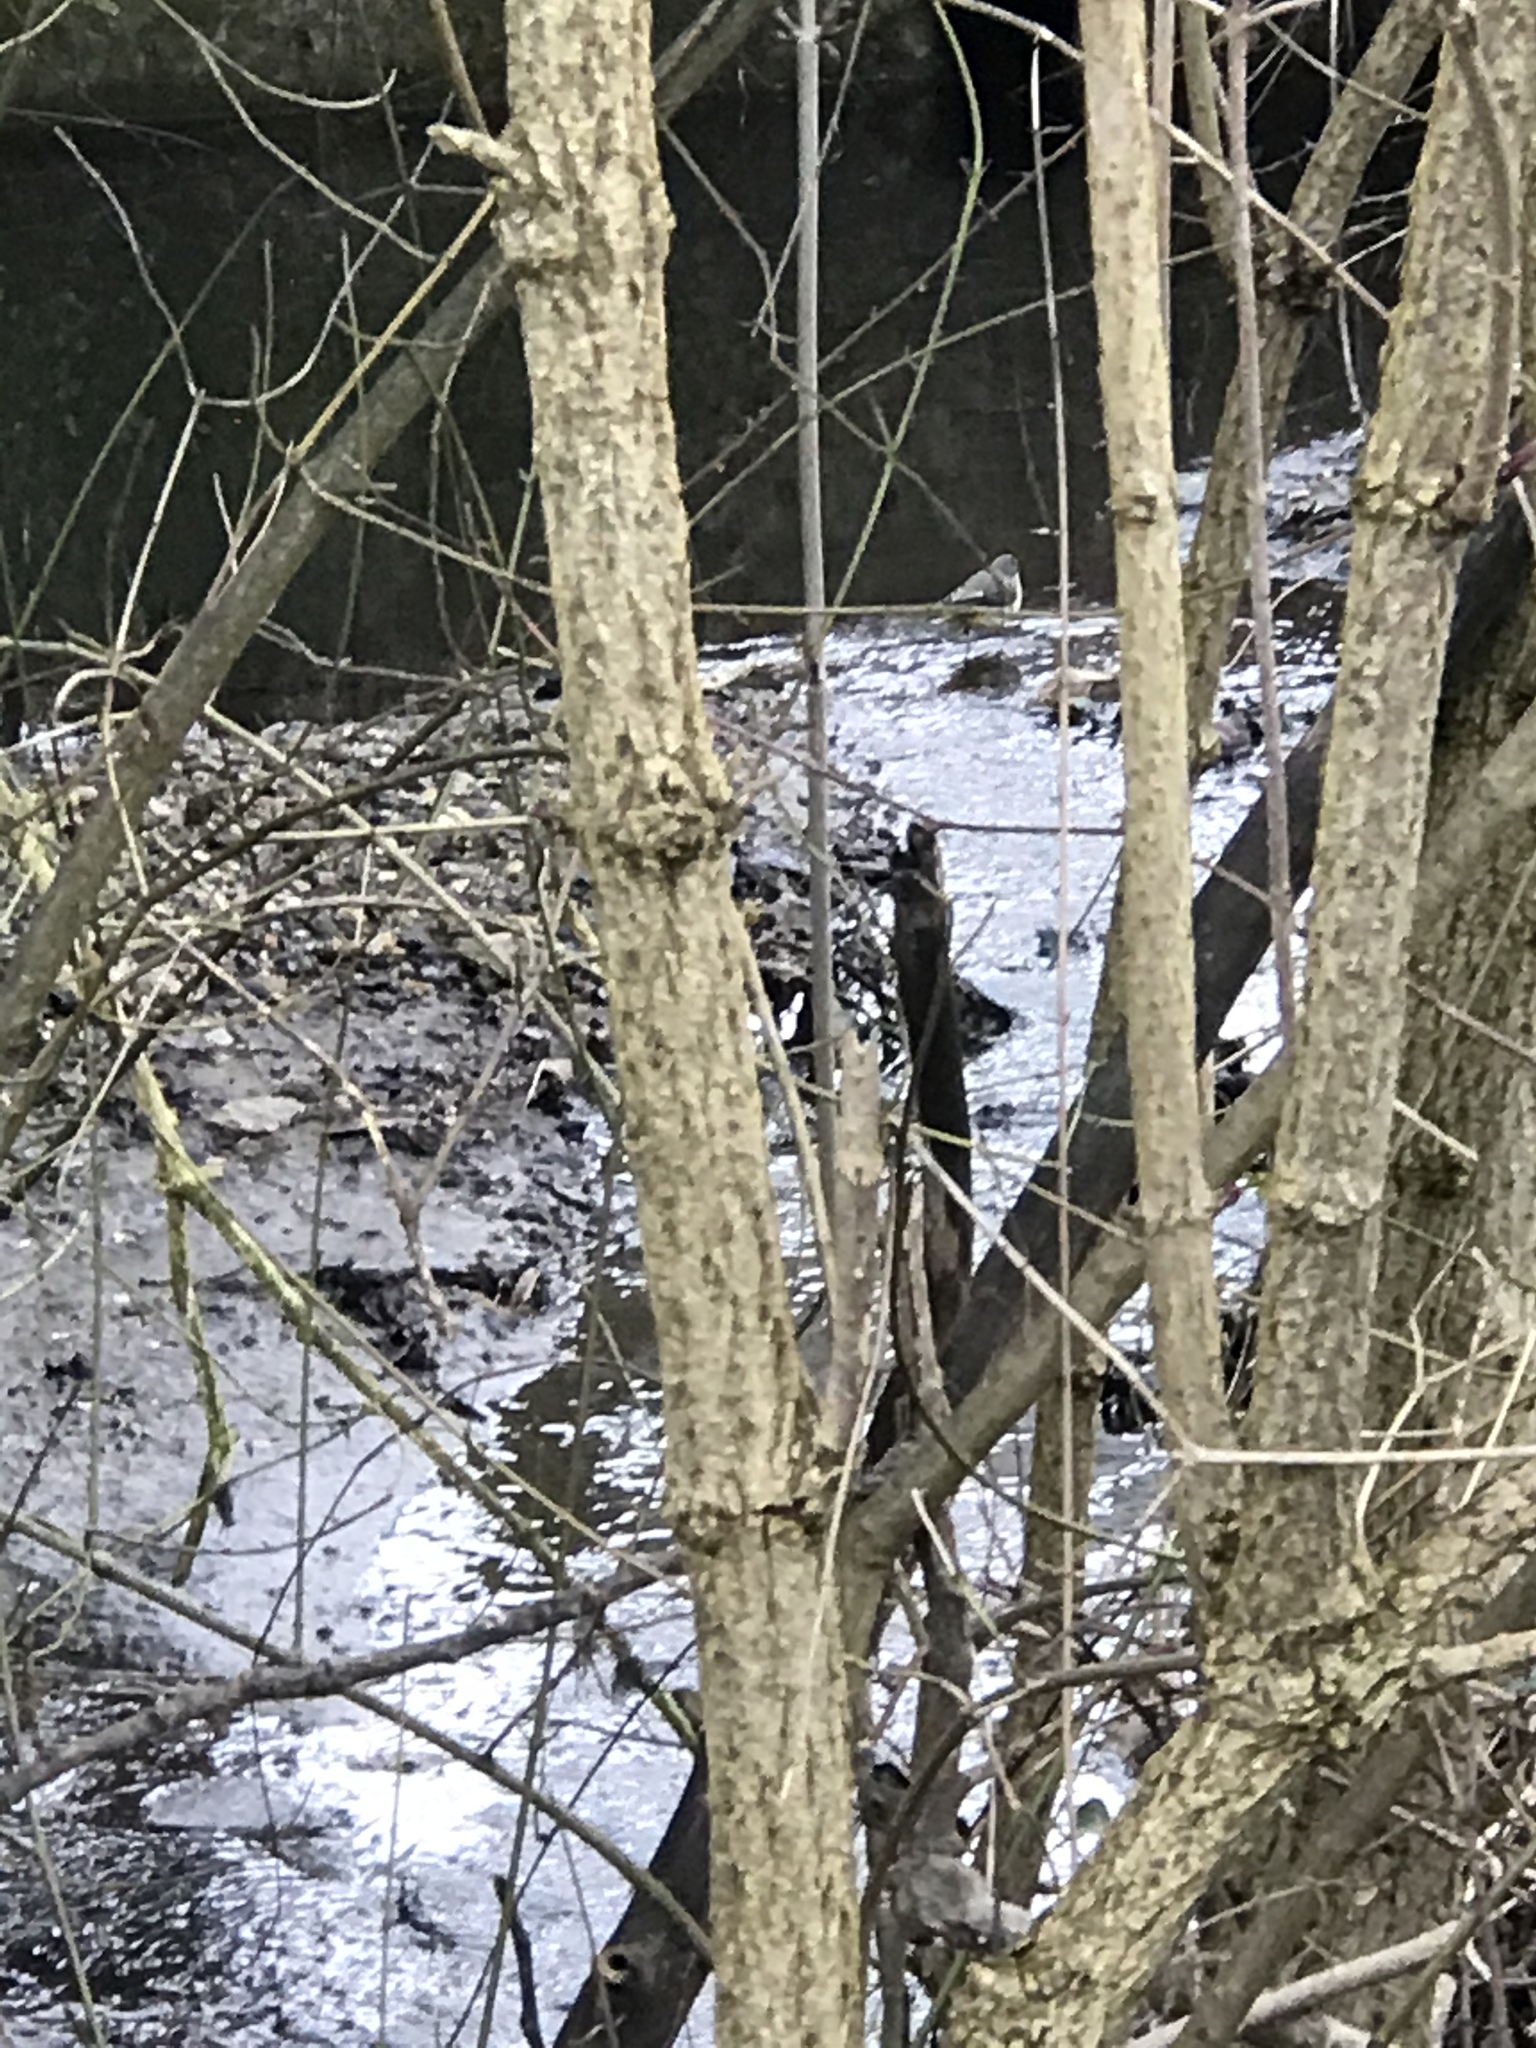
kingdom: Animalia
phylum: Chordata
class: Aves
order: Passeriformes
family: Motacillidae
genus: Motacilla
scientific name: Motacilla cinerea
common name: Grey wagtail
